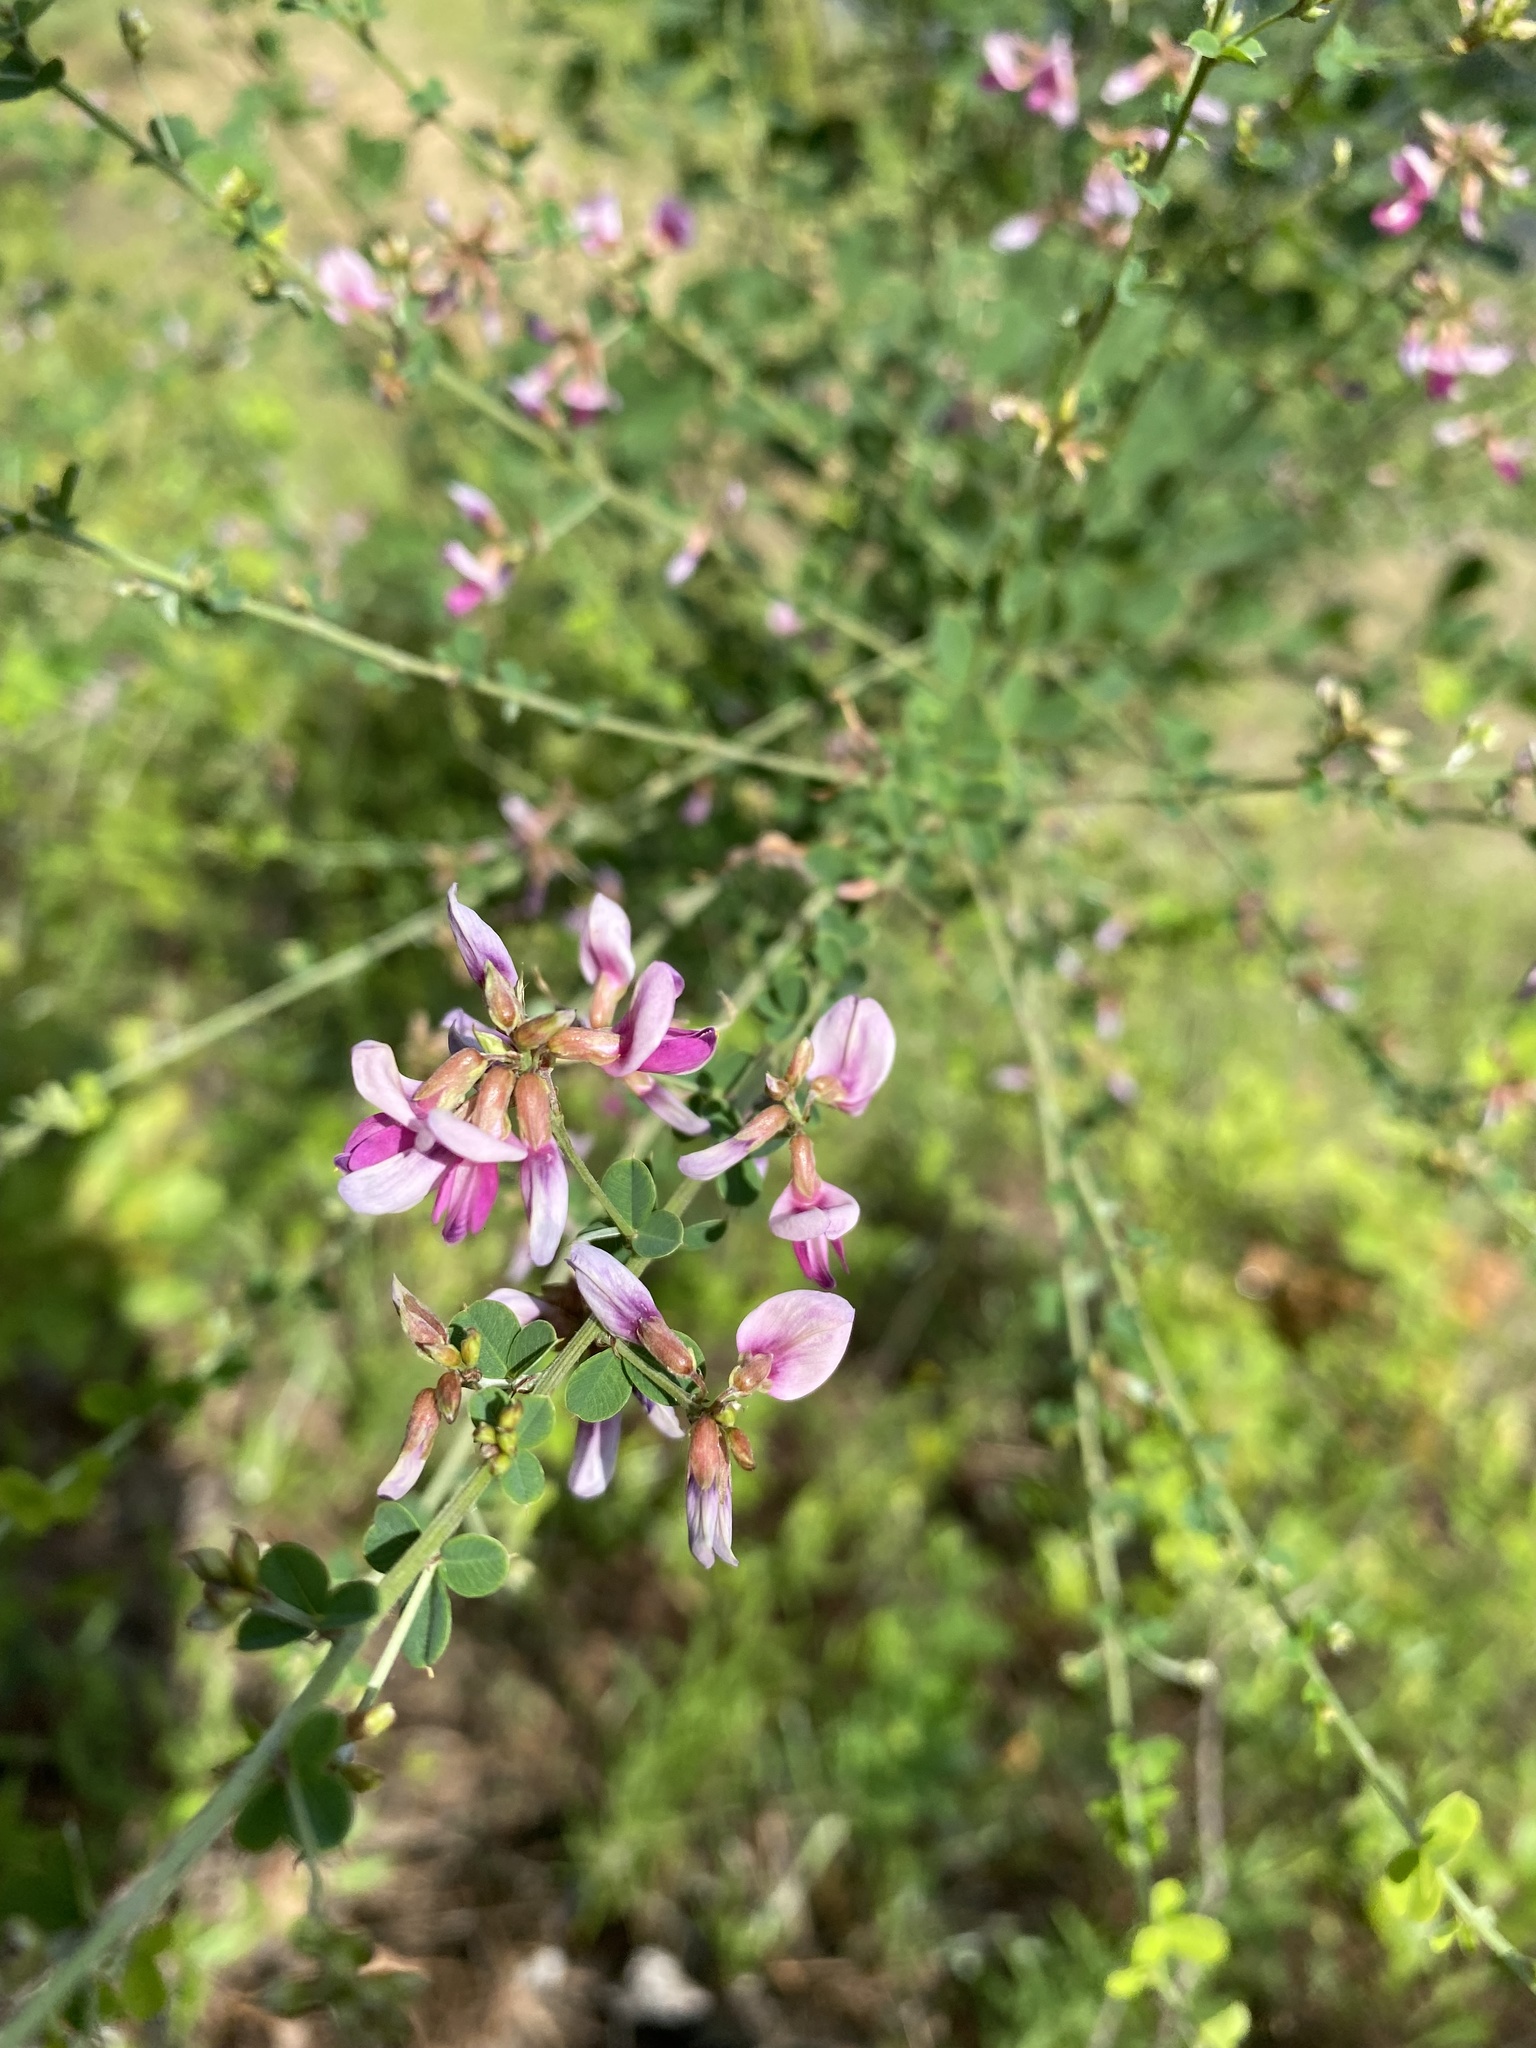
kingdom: Plantae
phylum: Tracheophyta
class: Magnoliopsida
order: Fabales
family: Fabaceae
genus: Lespedeza
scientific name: Lespedeza bicolor
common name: Shrub lespedeza
